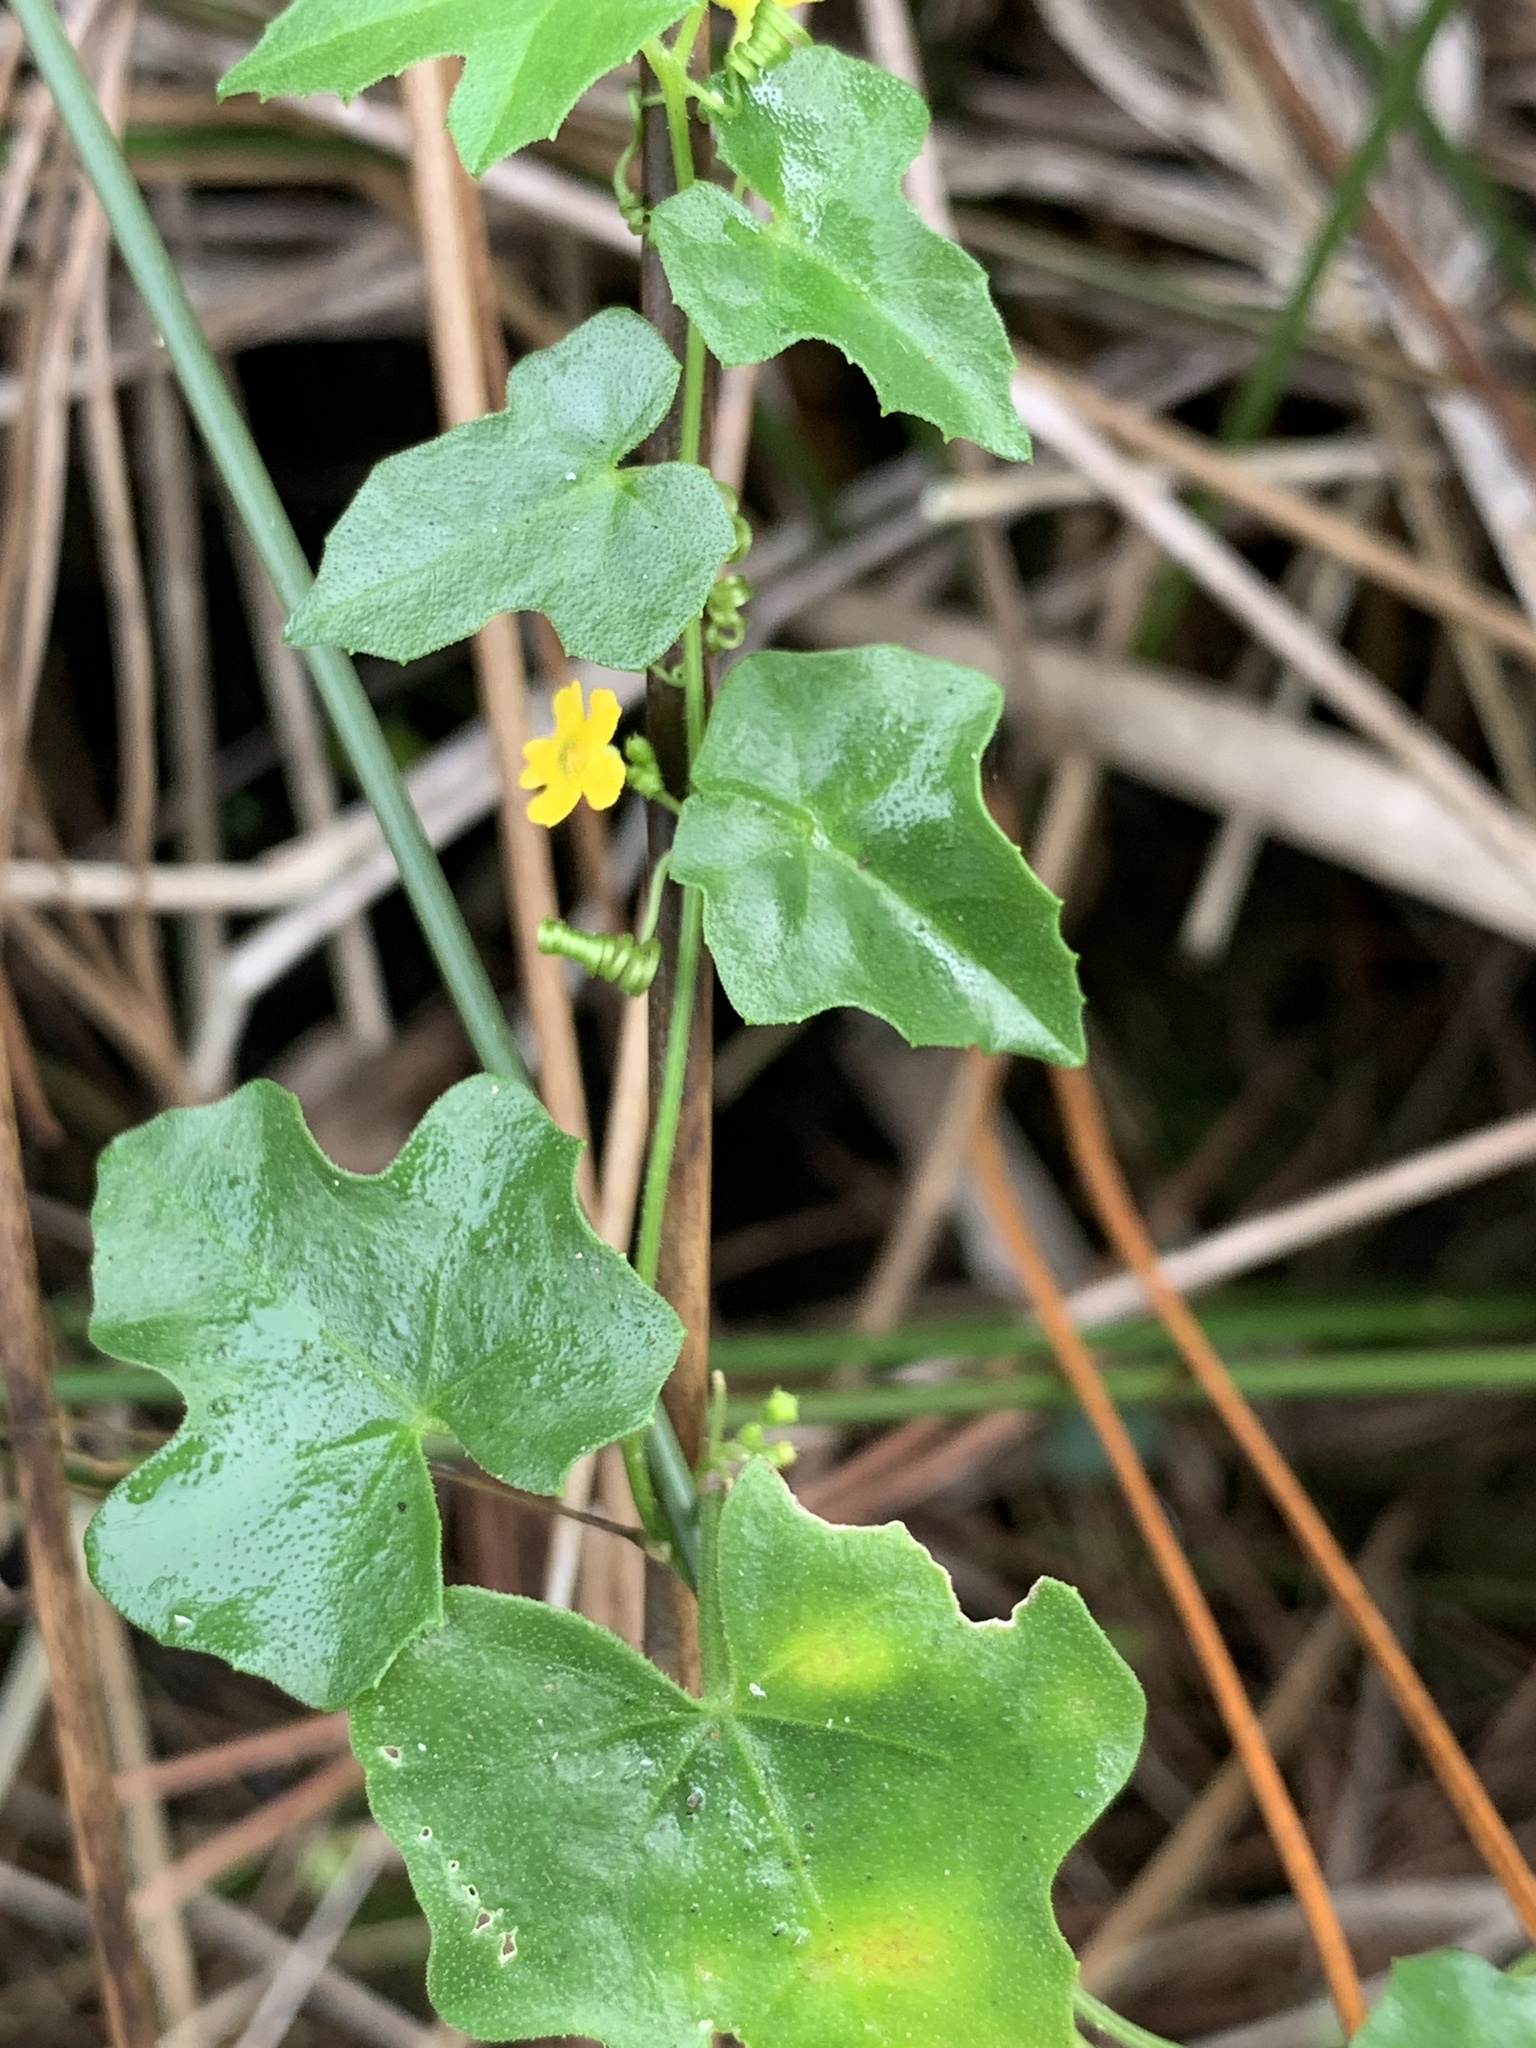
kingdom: Plantae
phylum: Tracheophyta
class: Magnoliopsida
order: Cucurbitales
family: Cucurbitaceae
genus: Melothria
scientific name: Melothria pendula
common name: Creeping-cucumber
